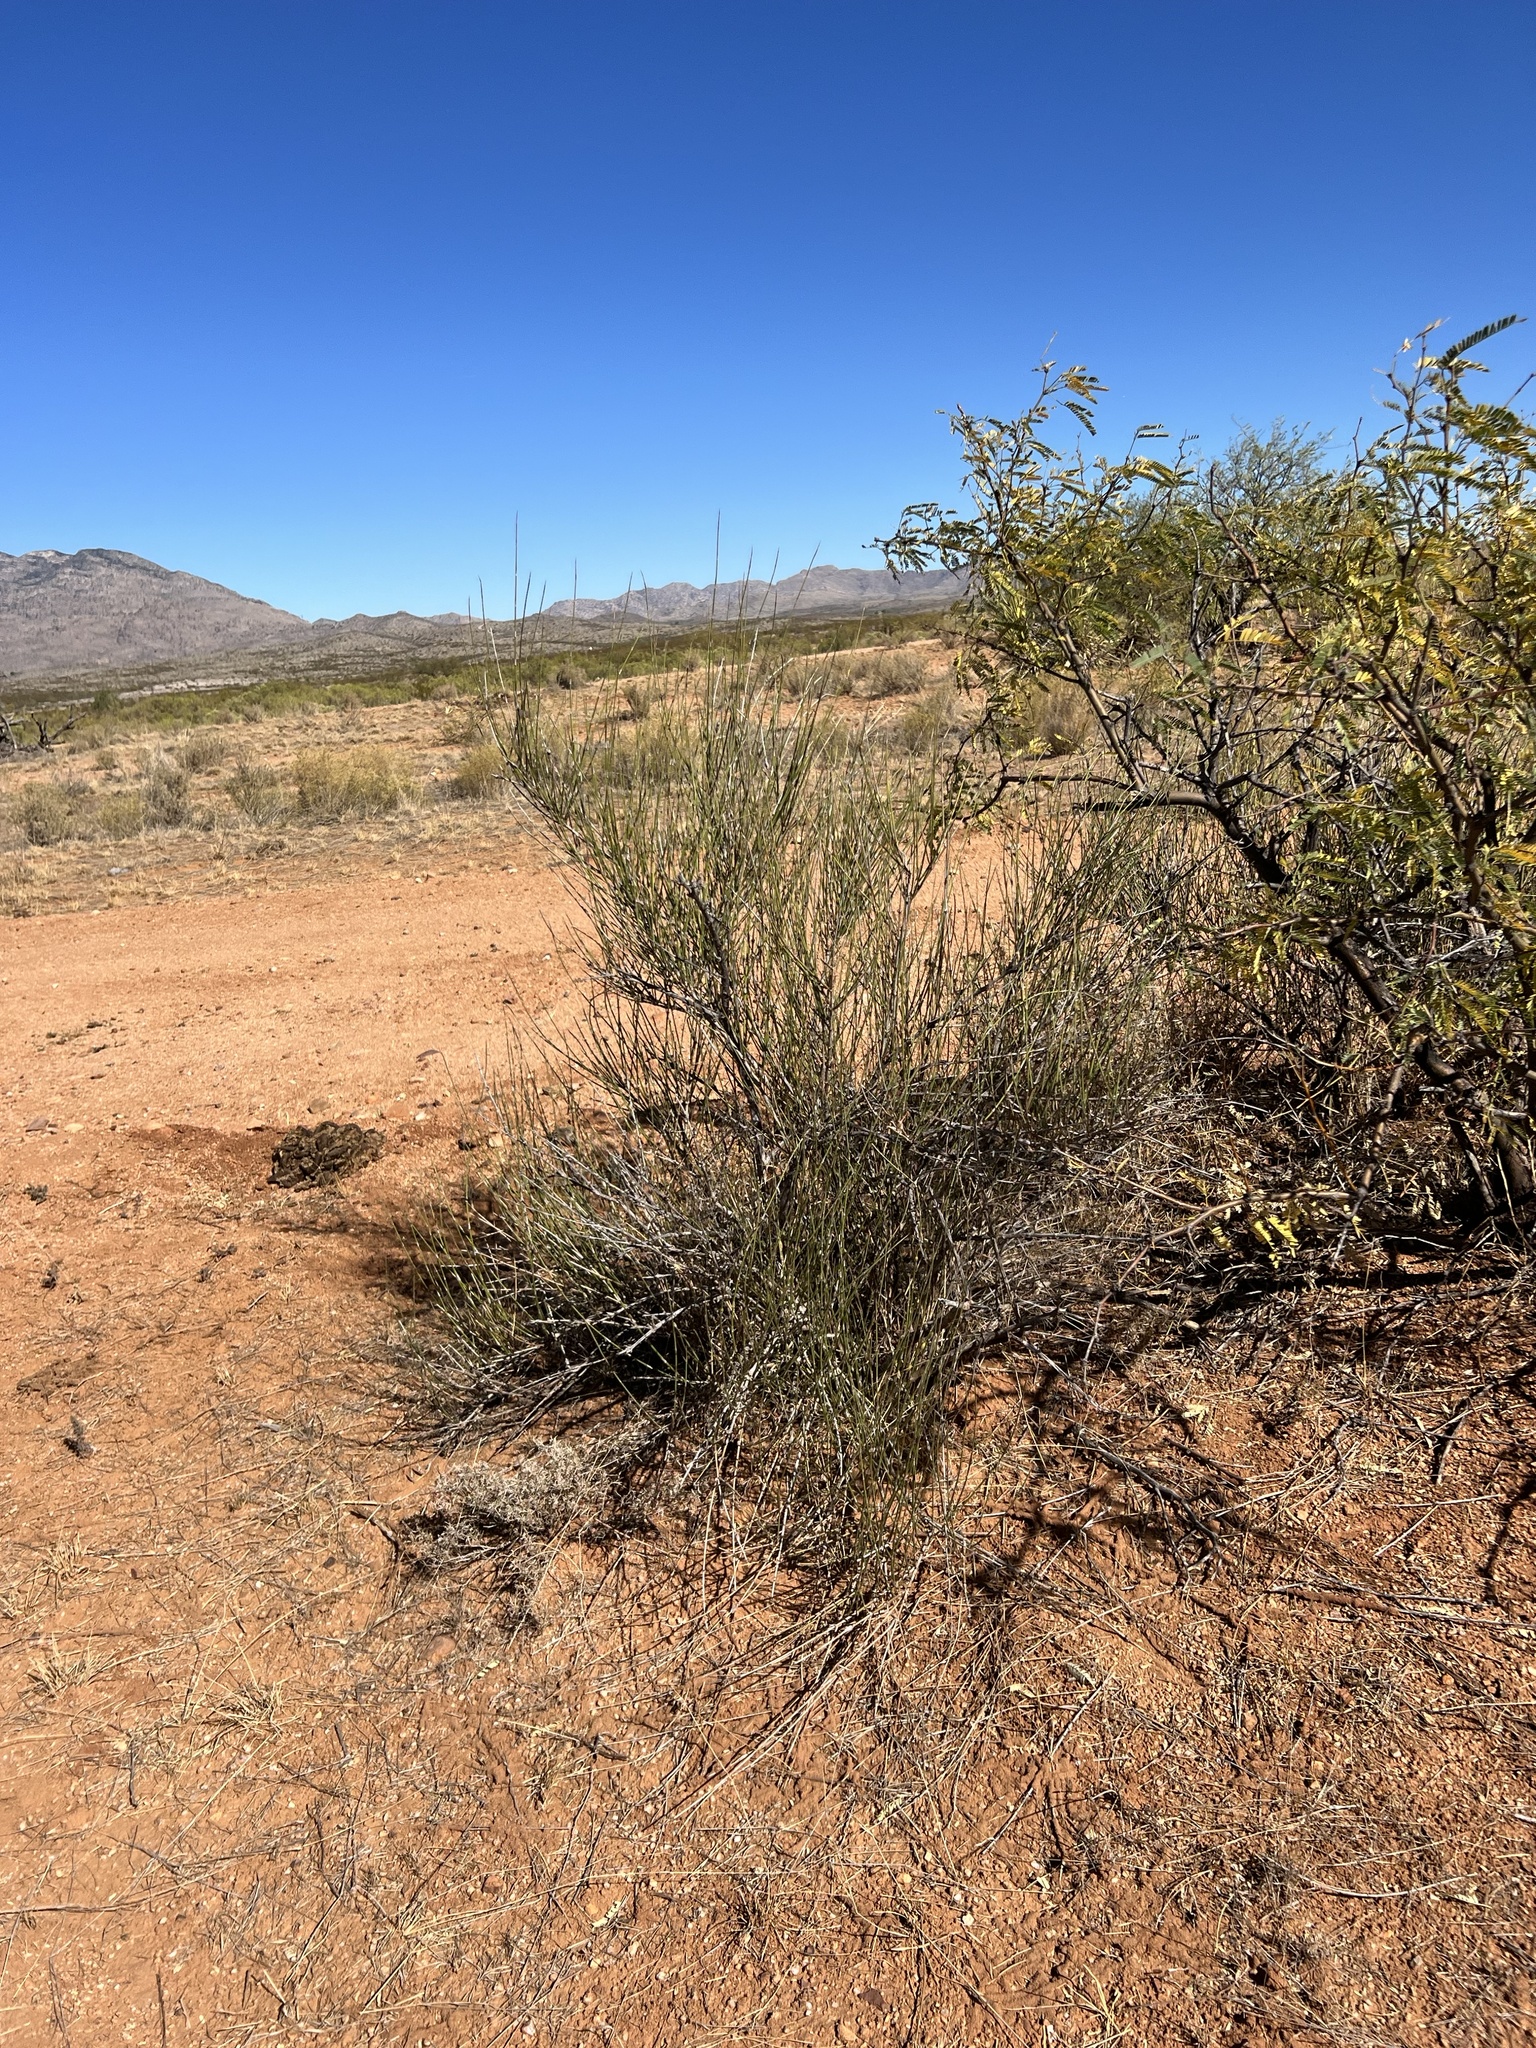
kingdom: Plantae
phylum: Tracheophyta
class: Gnetopsida
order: Ephedrales
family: Ephedraceae
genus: Ephedra
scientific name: Ephedra trifurca
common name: Mexican-tea
